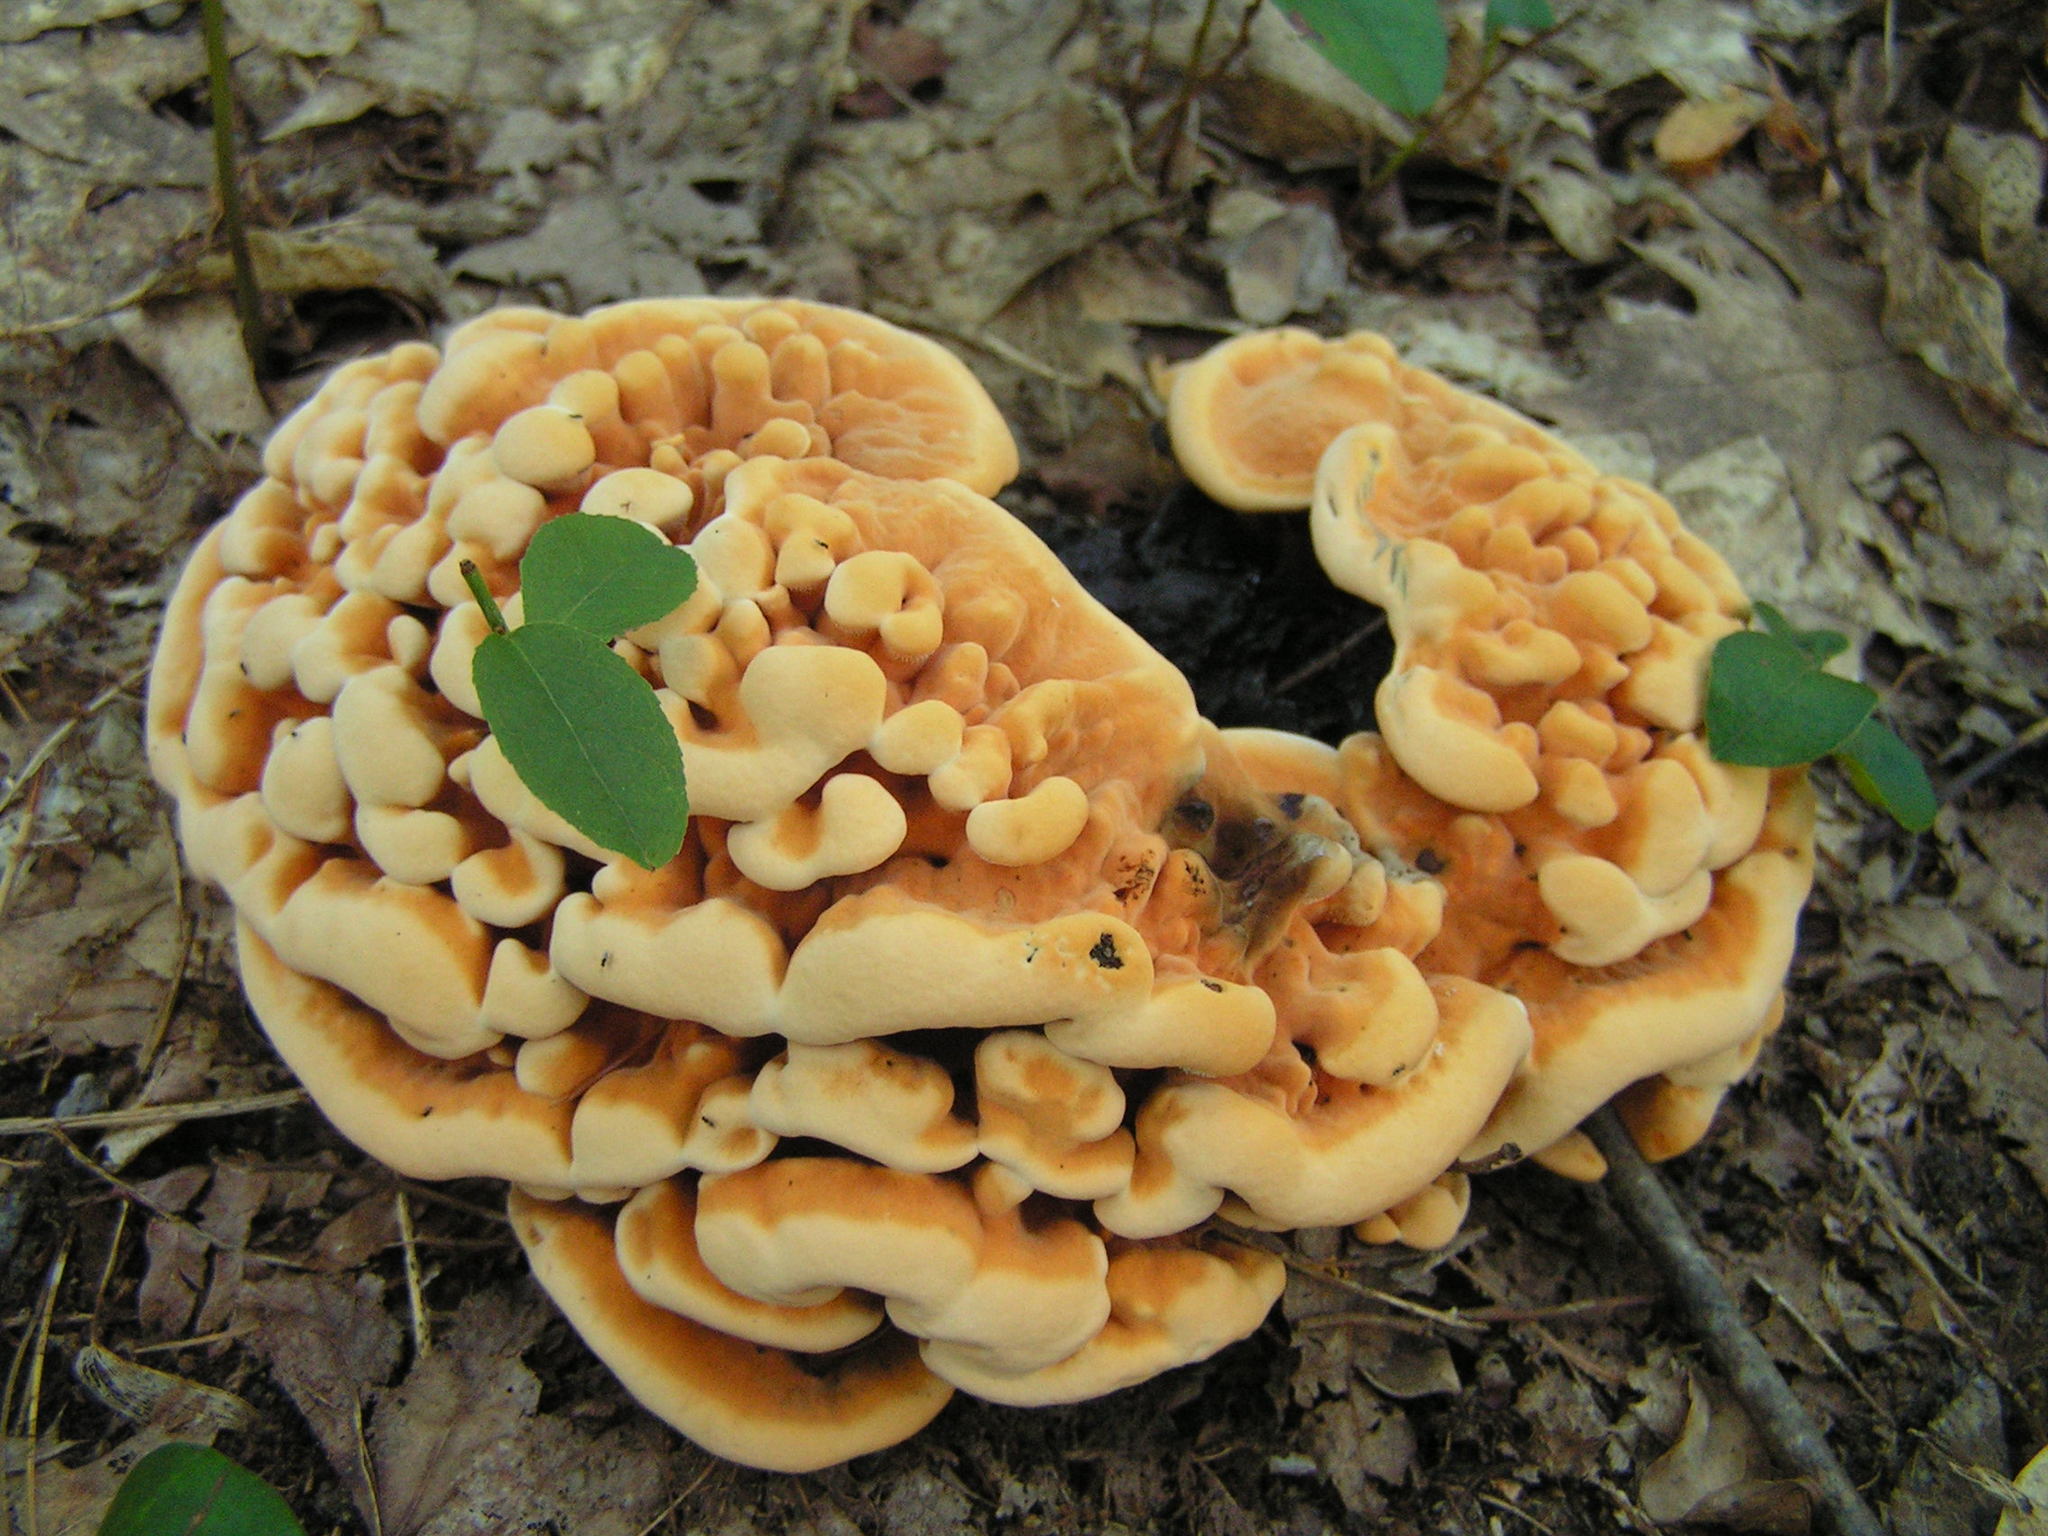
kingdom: Fungi
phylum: Basidiomycota
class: Agaricomycetes
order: Thelephorales
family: Bankeraceae
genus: Hydnellum
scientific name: Hydnellum aurantiacum
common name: Orange tooth
